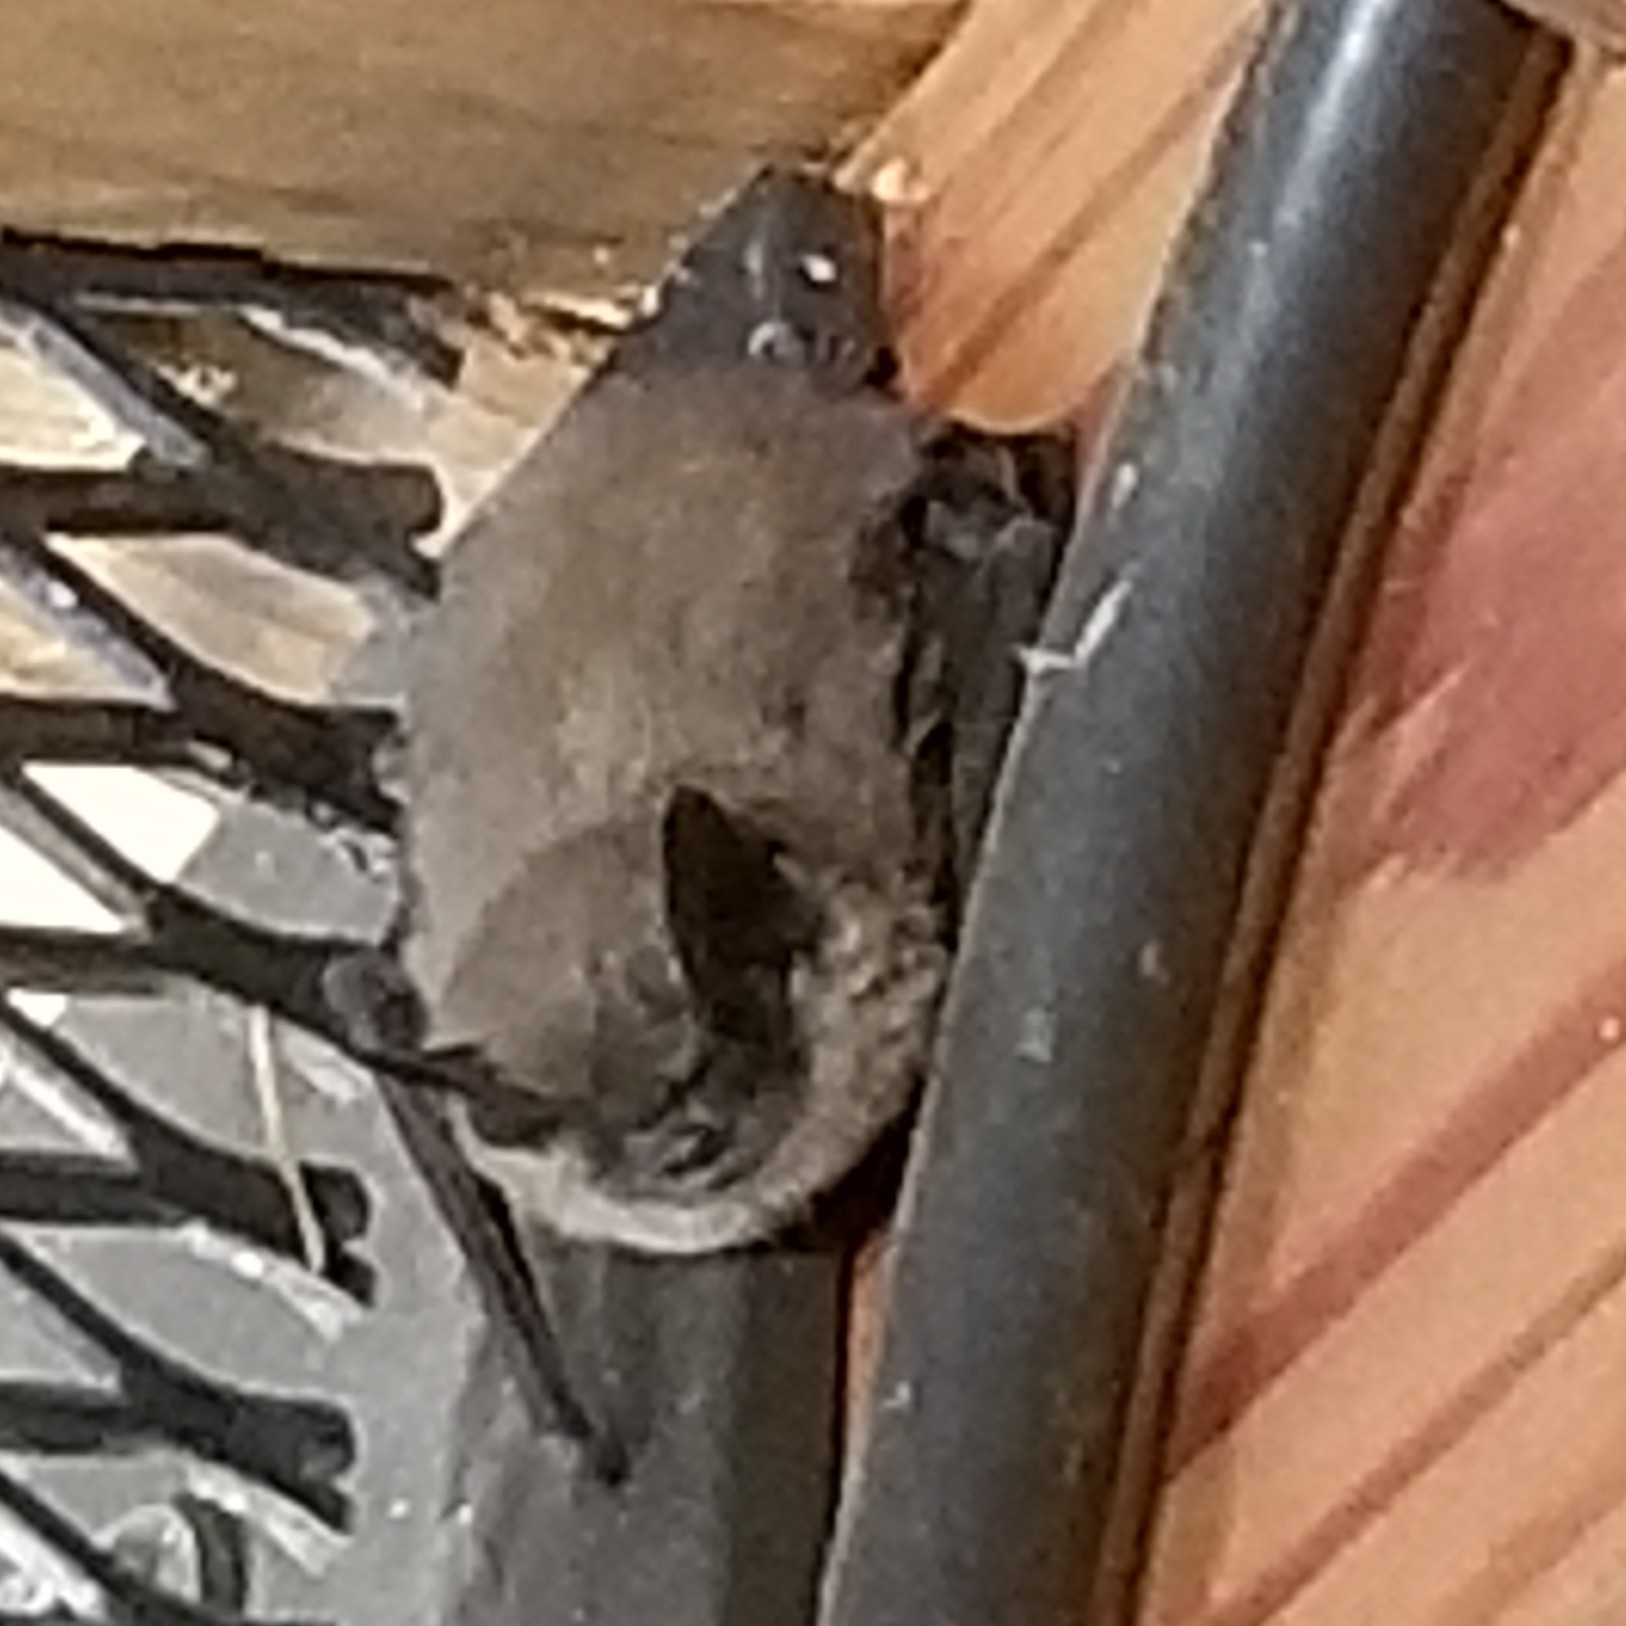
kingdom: Animalia
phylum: Chordata
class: Mammalia
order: Chiroptera
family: Vespertilionidae
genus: Eptesicus
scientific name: Eptesicus fuscus
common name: Big brown bat
